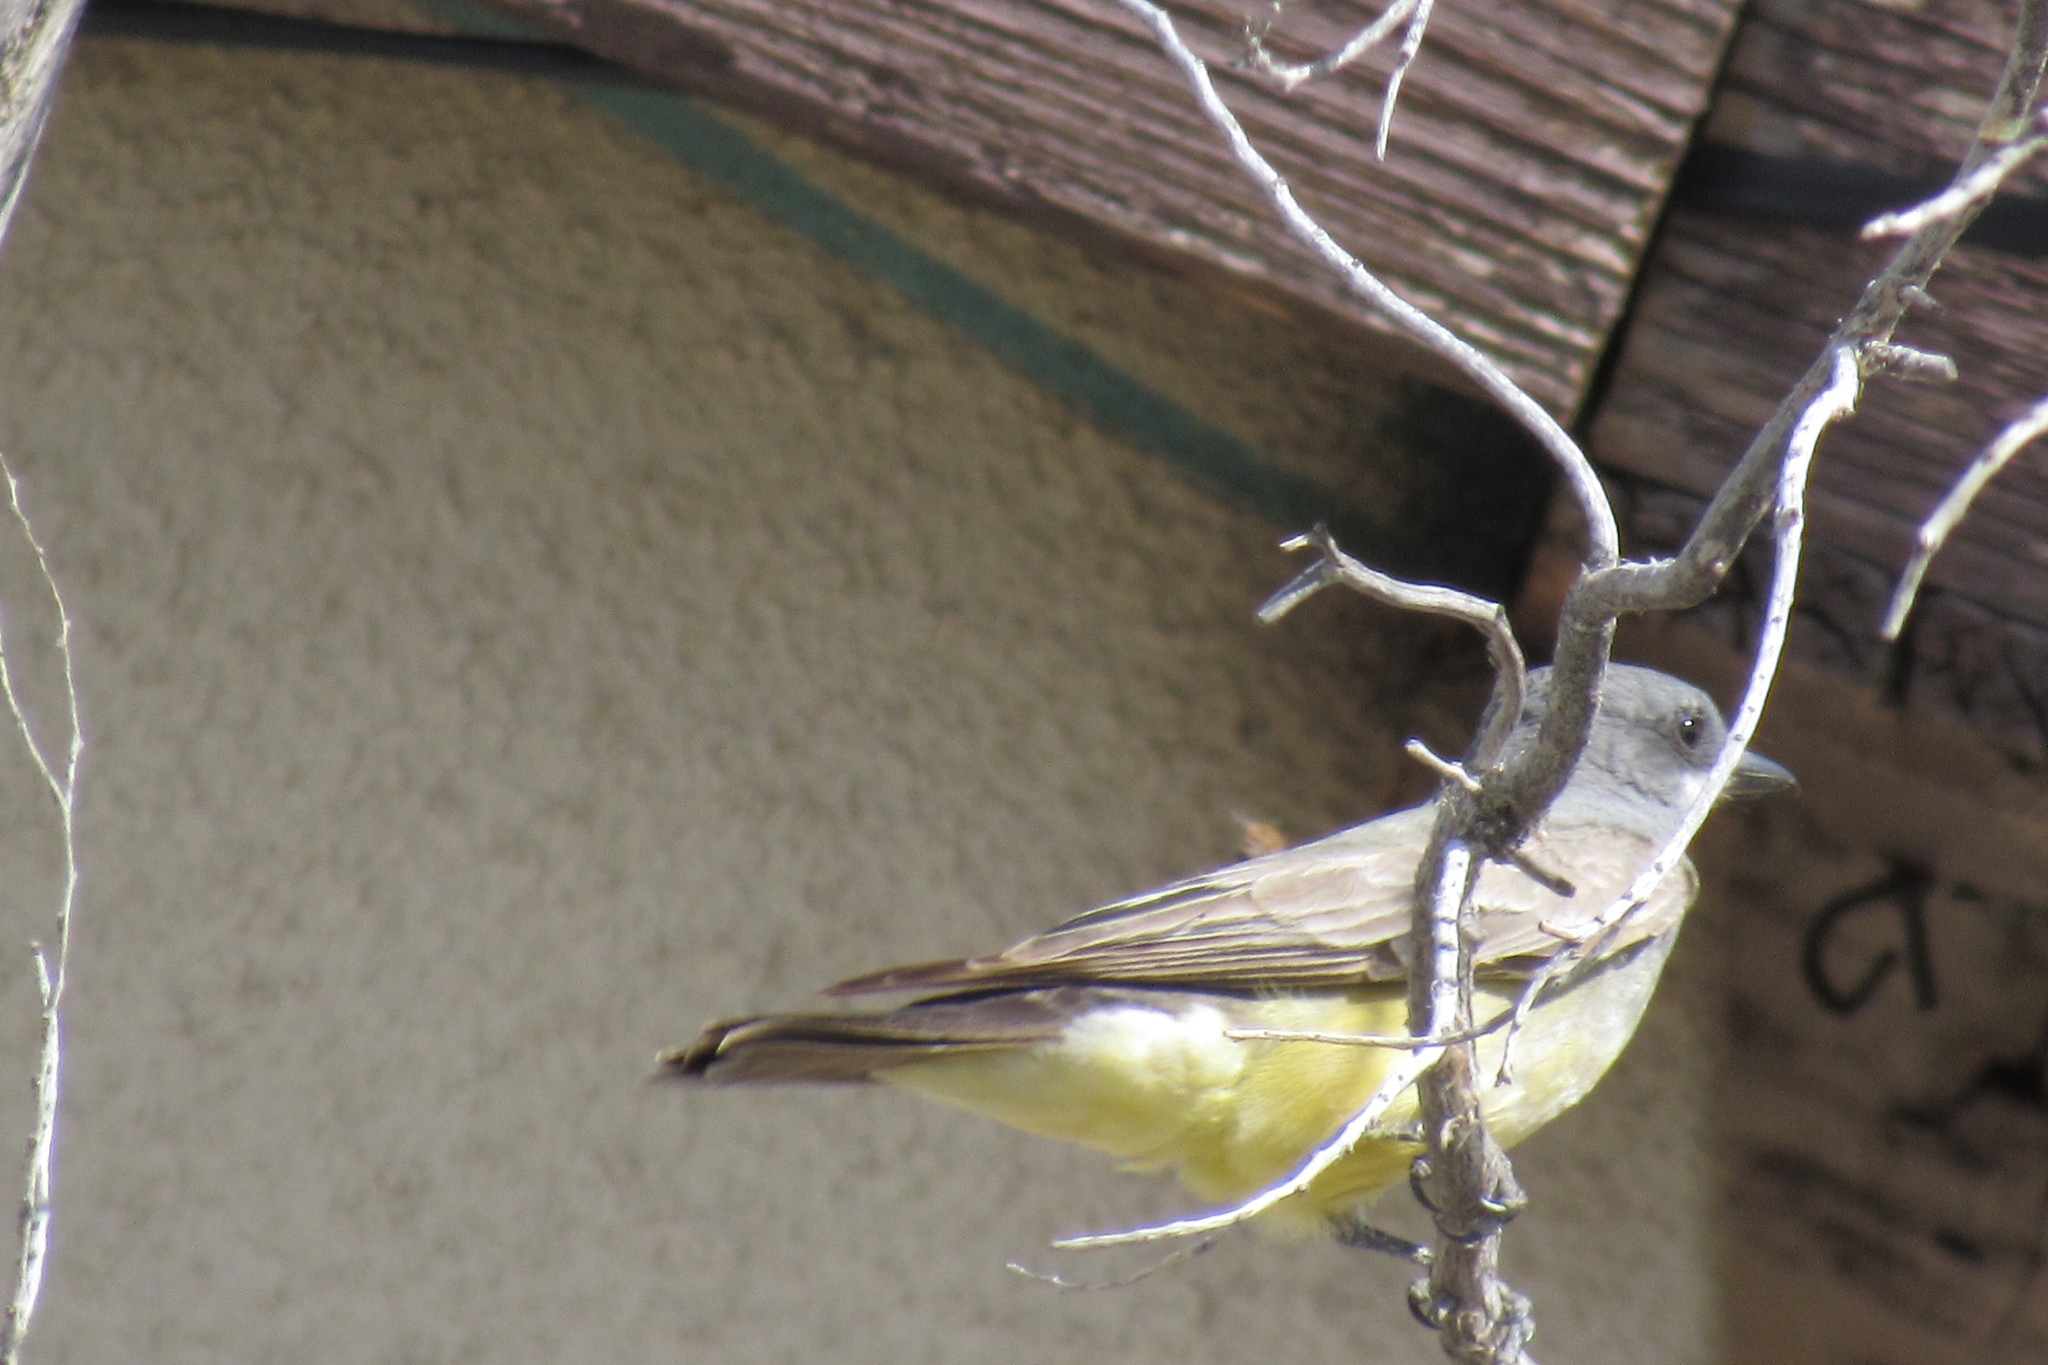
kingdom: Animalia
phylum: Chordata
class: Aves
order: Passeriformes
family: Tyrannidae
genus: Tyrannus
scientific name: Tyrannus verticalis
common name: Western kingbird
